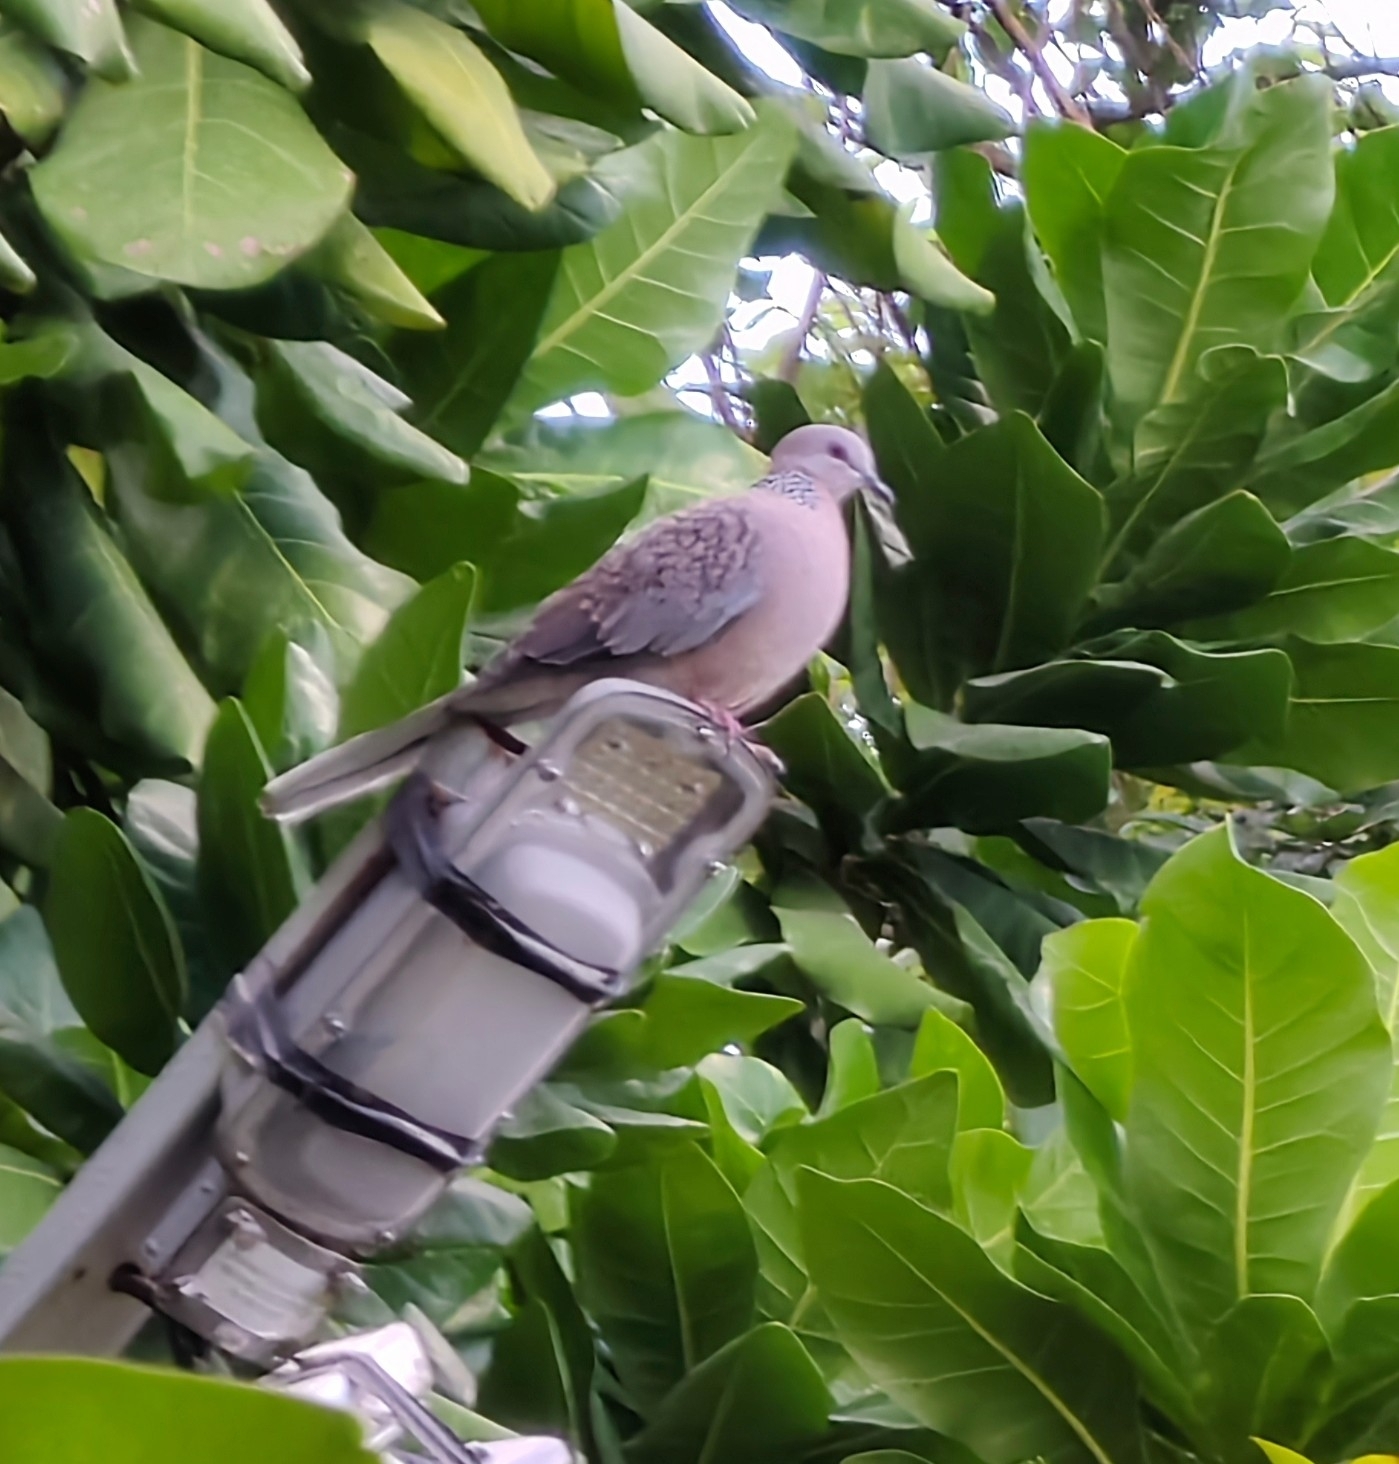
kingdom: Animalia
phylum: Chordata
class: Aves
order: Columbiformes
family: Columbidae
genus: Spilopelia
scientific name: Spilopelia chinensis
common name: Spotted dove
